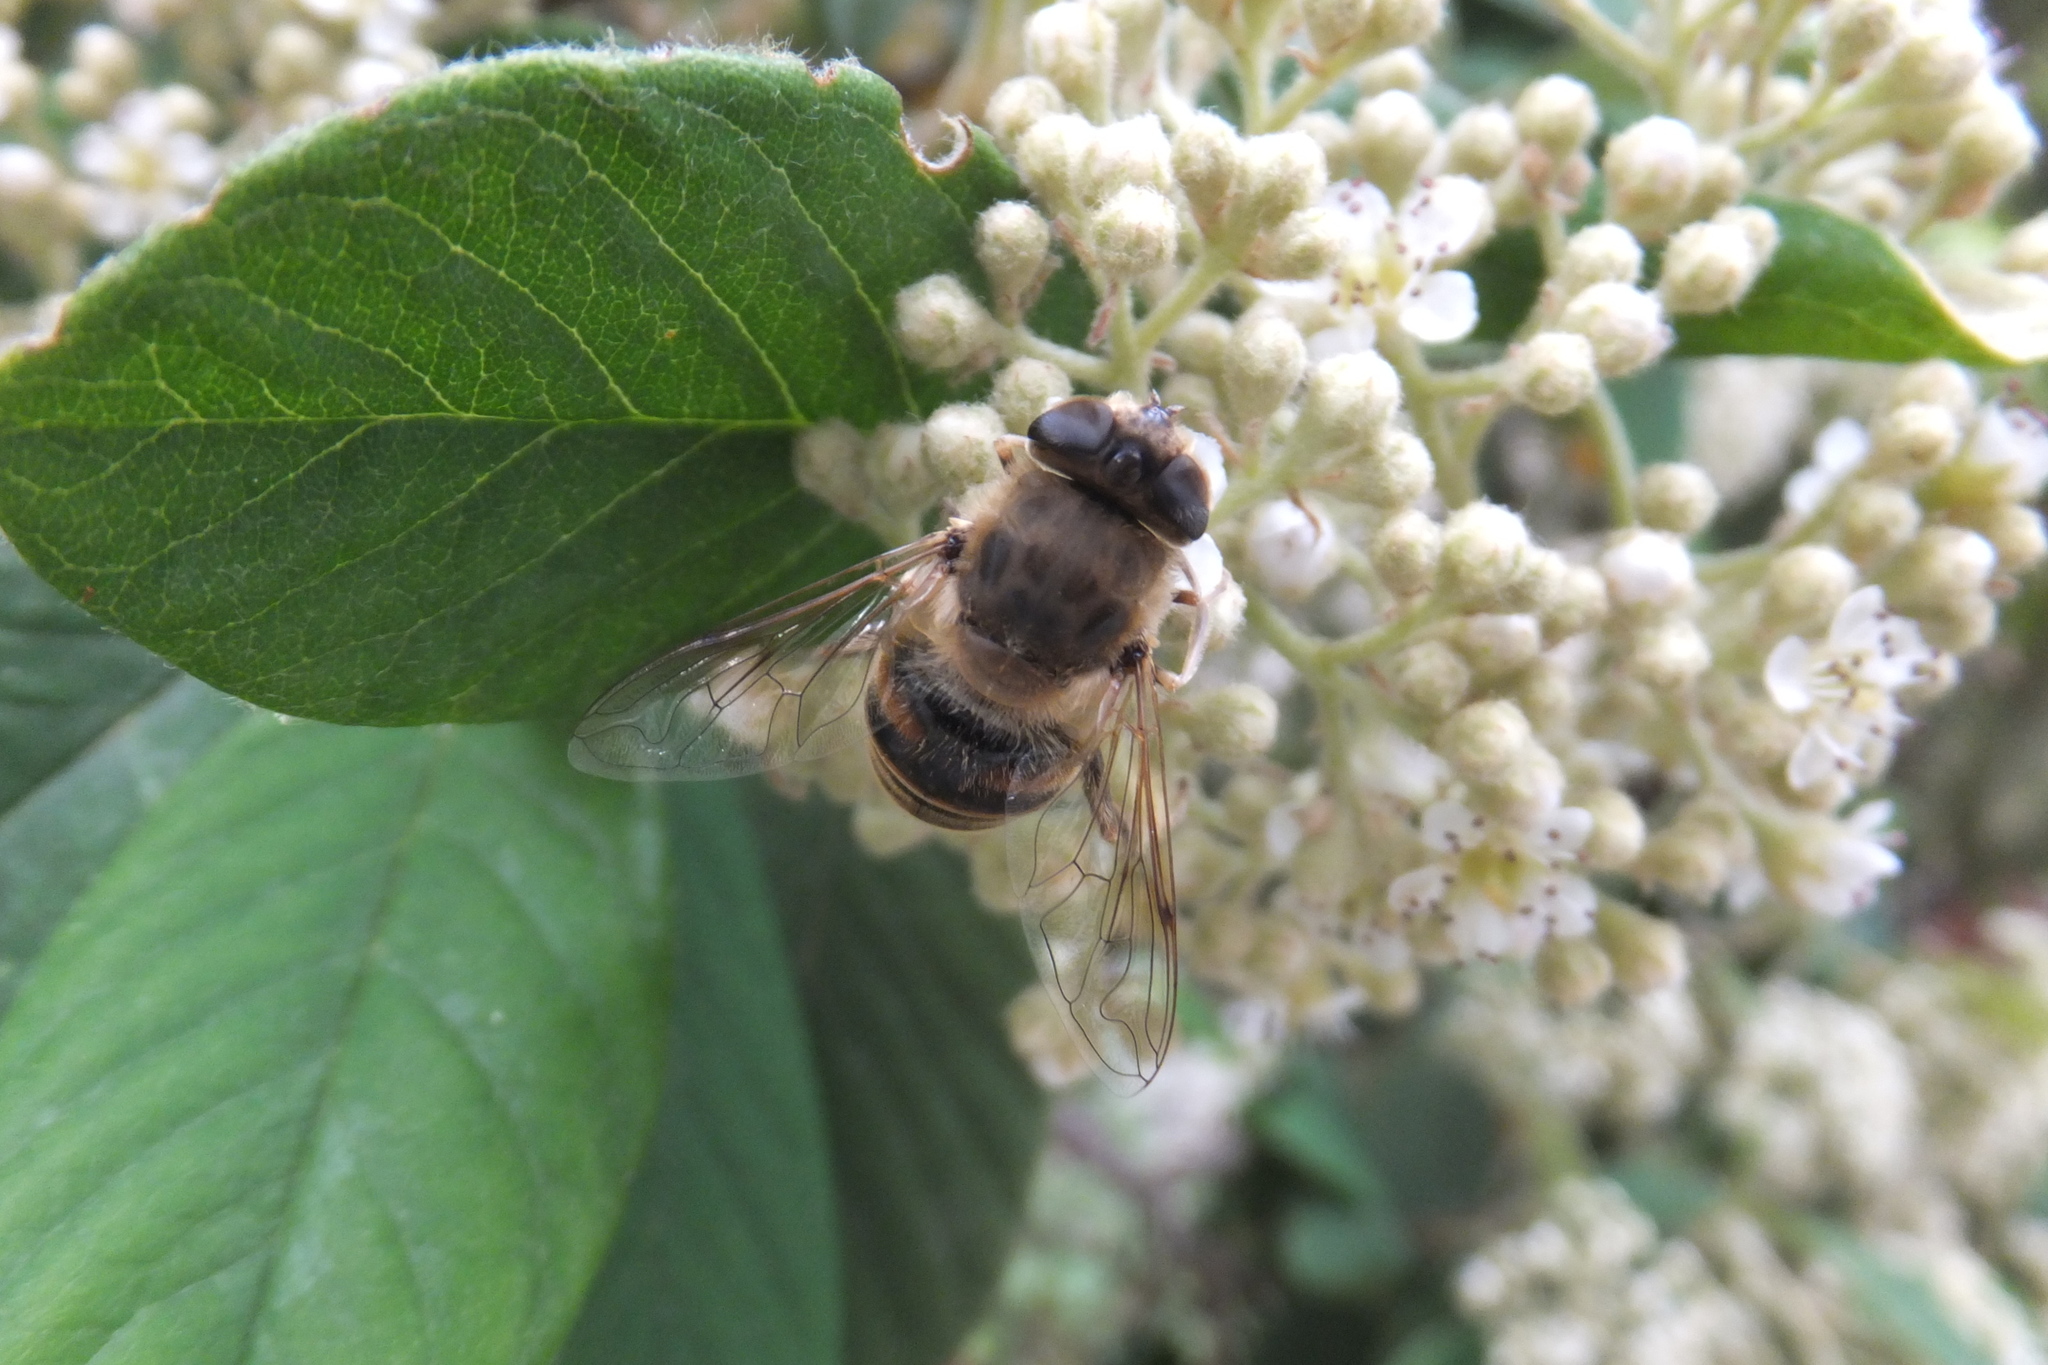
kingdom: Animalia
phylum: Arthropoda
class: Insecta
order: Diptera
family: Syrphidae
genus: Eristalis
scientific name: Eristalis tenax
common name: Drone fly
